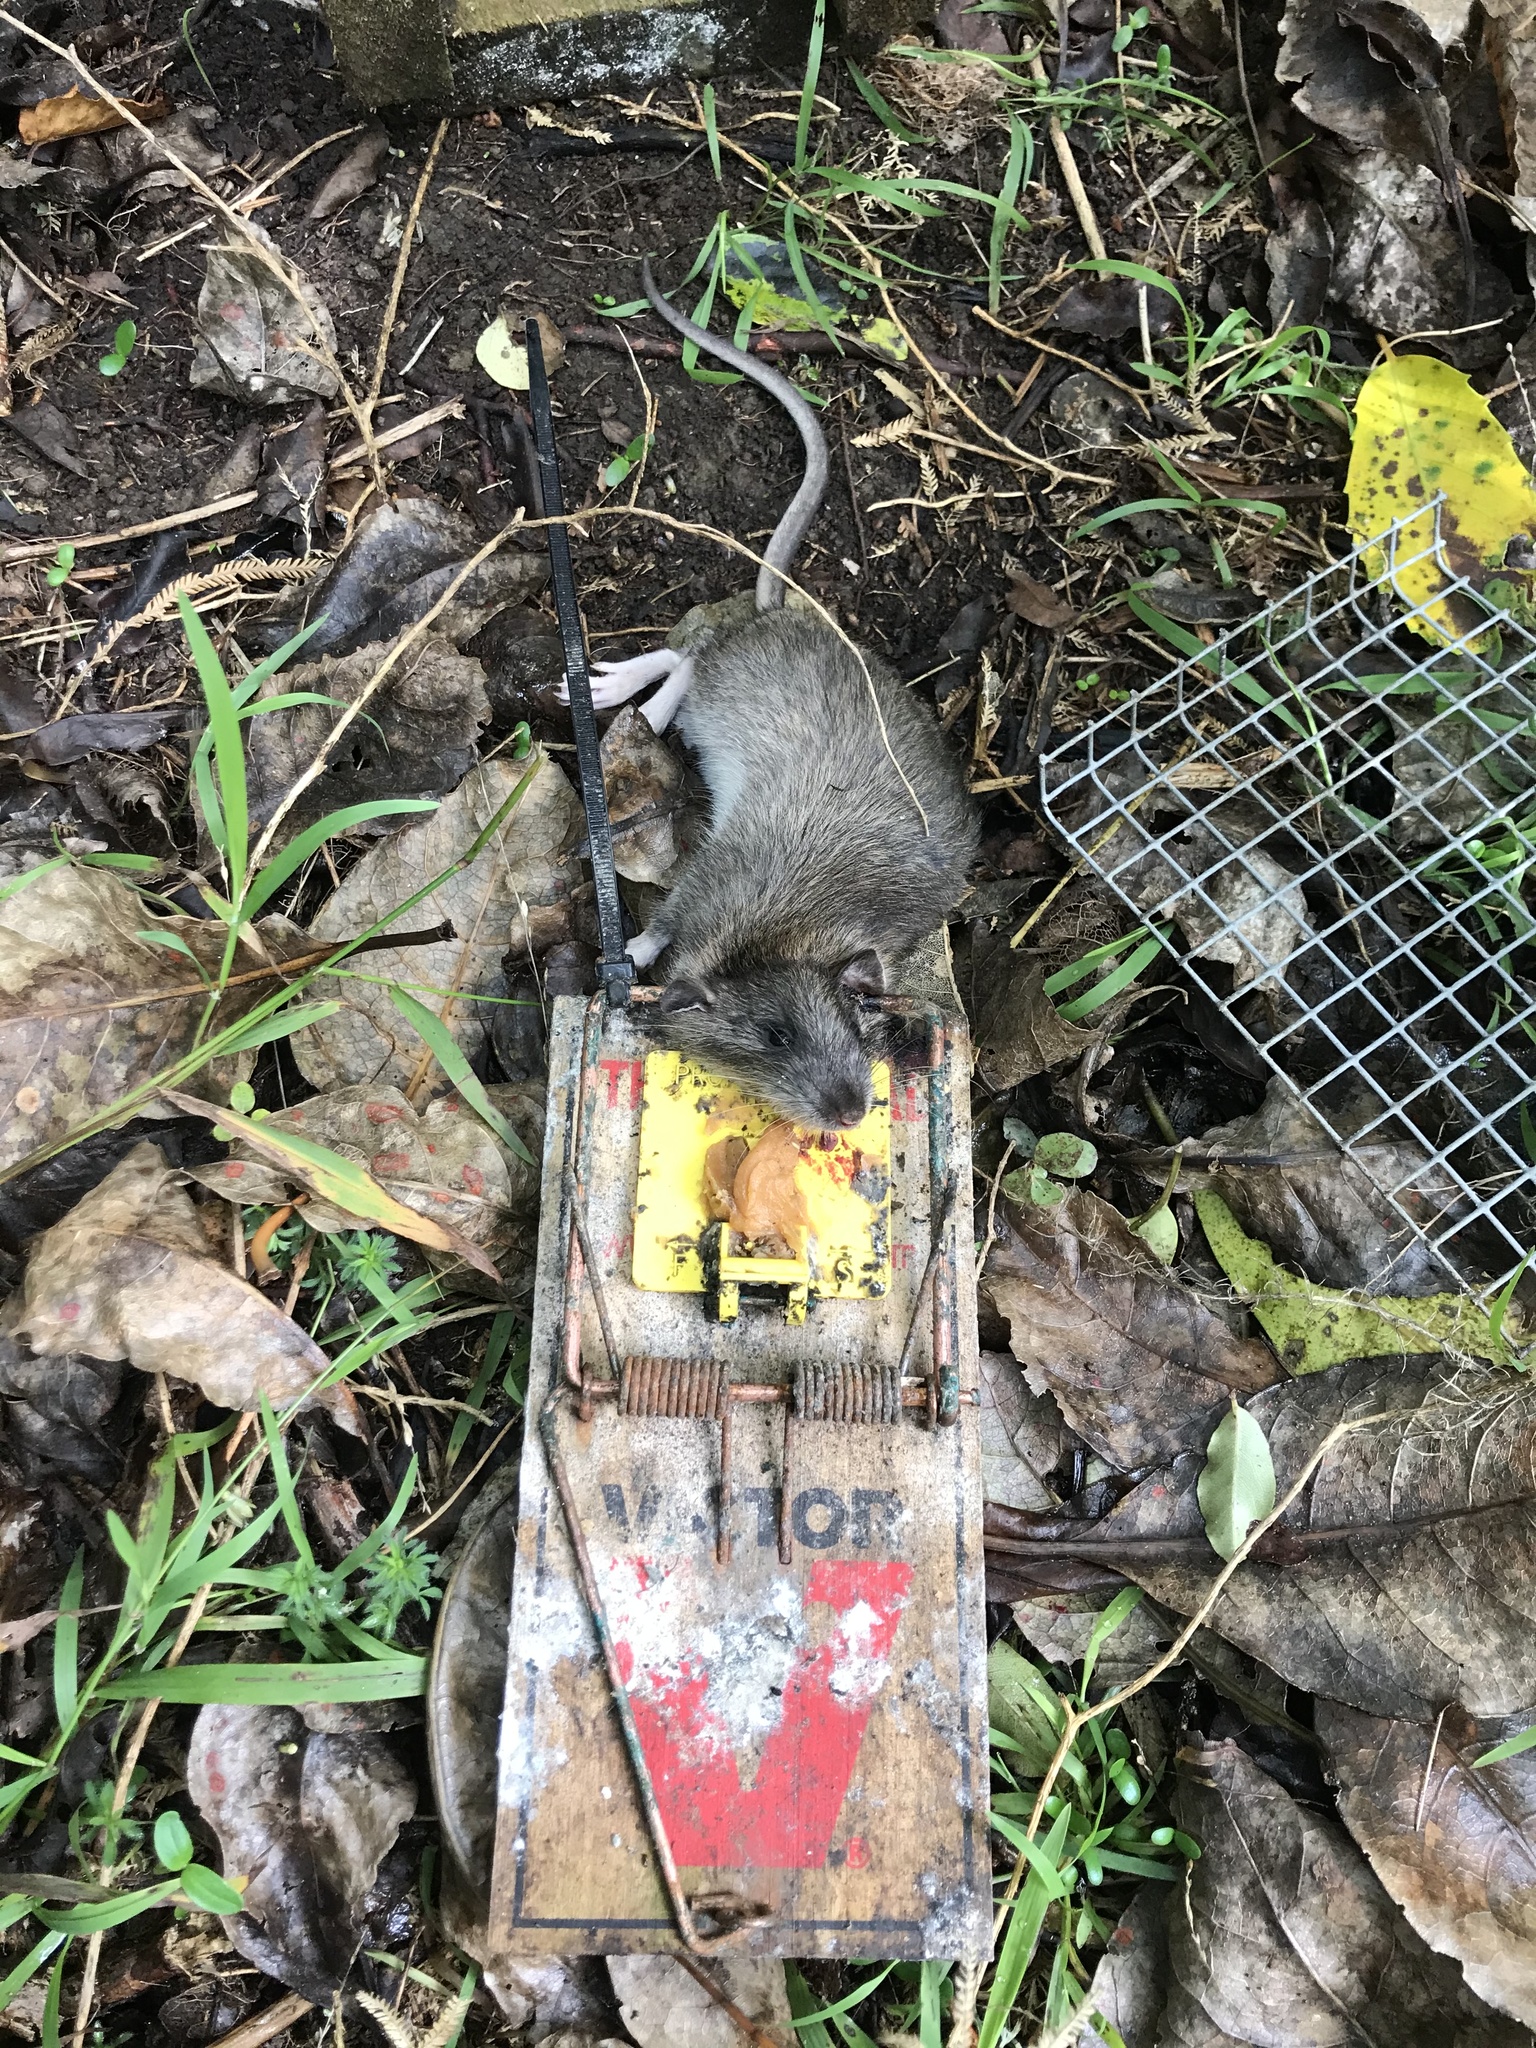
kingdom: Animalia
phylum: Chordata
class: Mammalia
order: Rodentia
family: Muridae
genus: Rattus
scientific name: Rattus rattus
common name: Black rat
